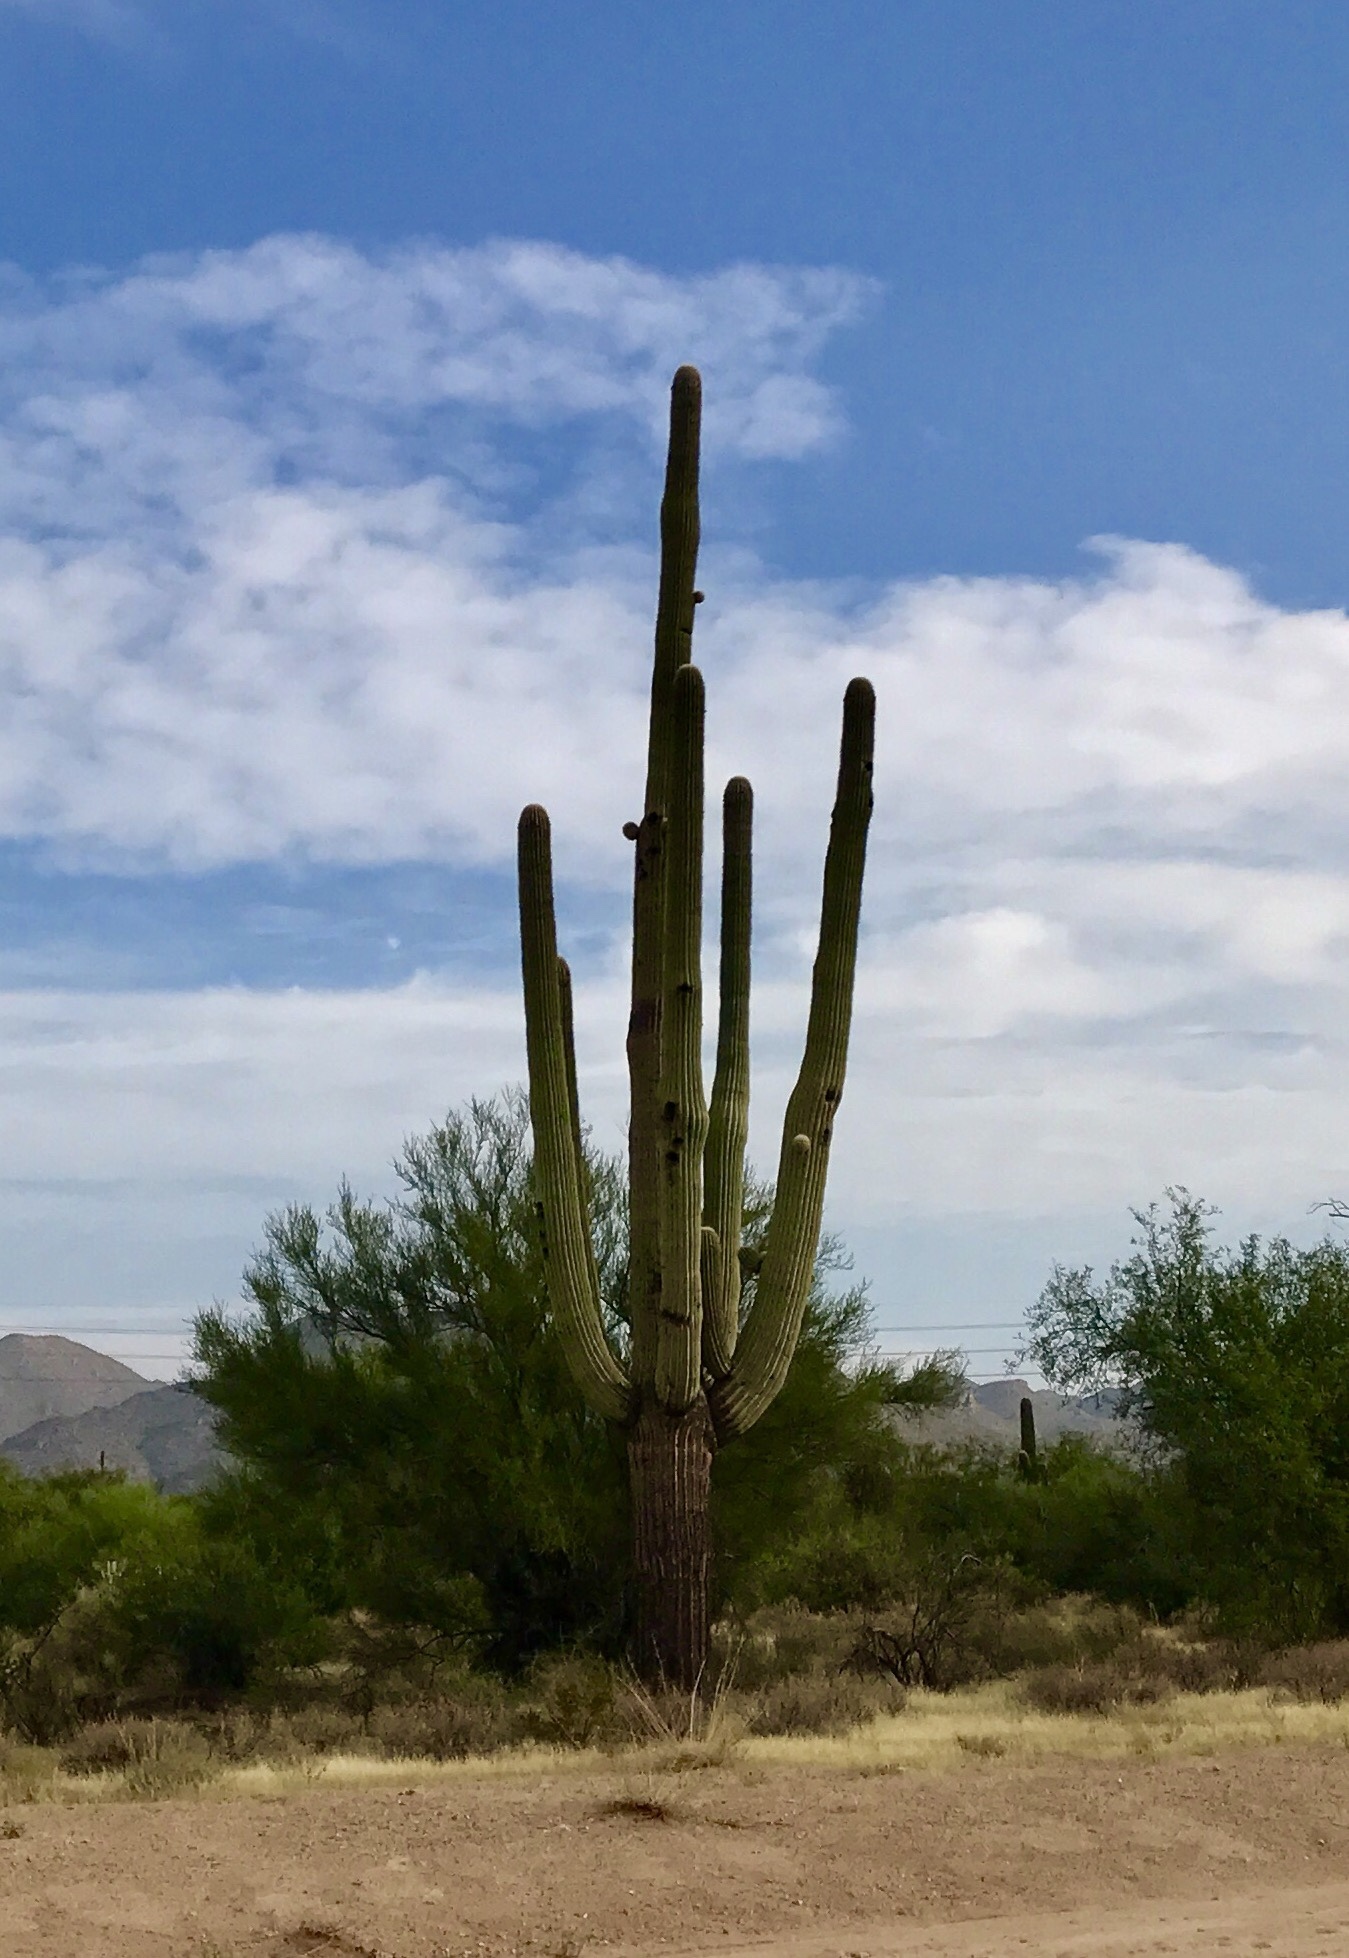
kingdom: Plantae
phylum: Tracheophyta
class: Magnoliopsida
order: Caryophyllales
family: Cactaceae
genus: Carnegiea
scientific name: Carnegiea gigantea
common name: Saguaro
